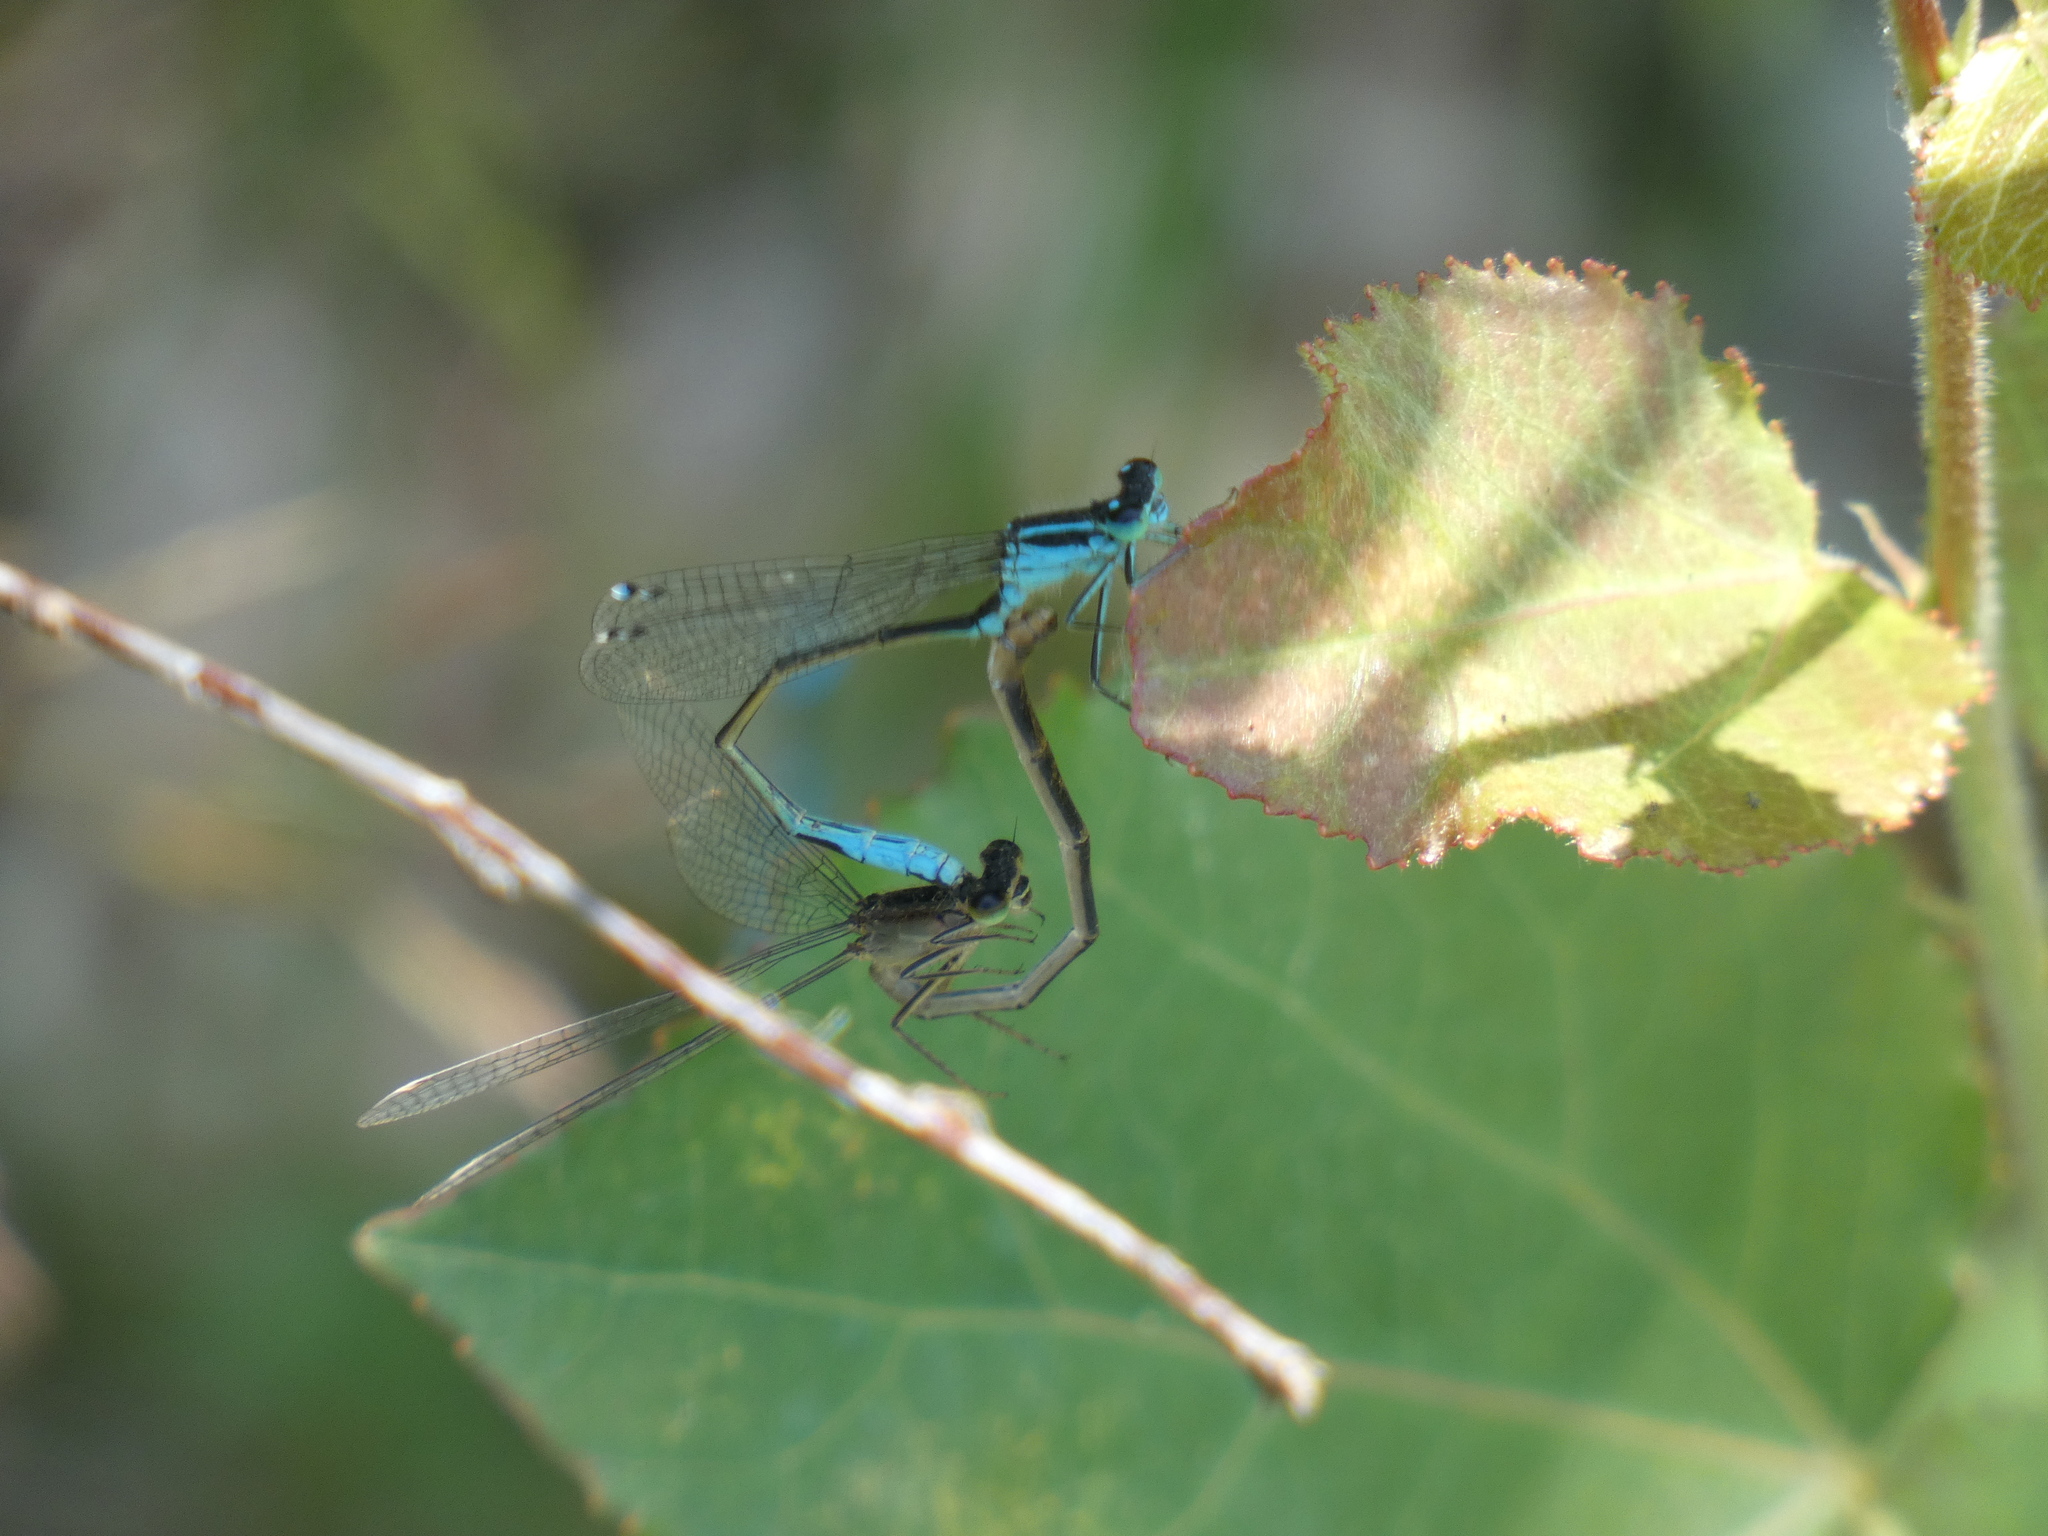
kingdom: Animalia
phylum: Arthropoda
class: Insecta
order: Odonata
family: Coenagrionidae
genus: Ischnura
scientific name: Ischnura elegans
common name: Blue-tailed damselfly
